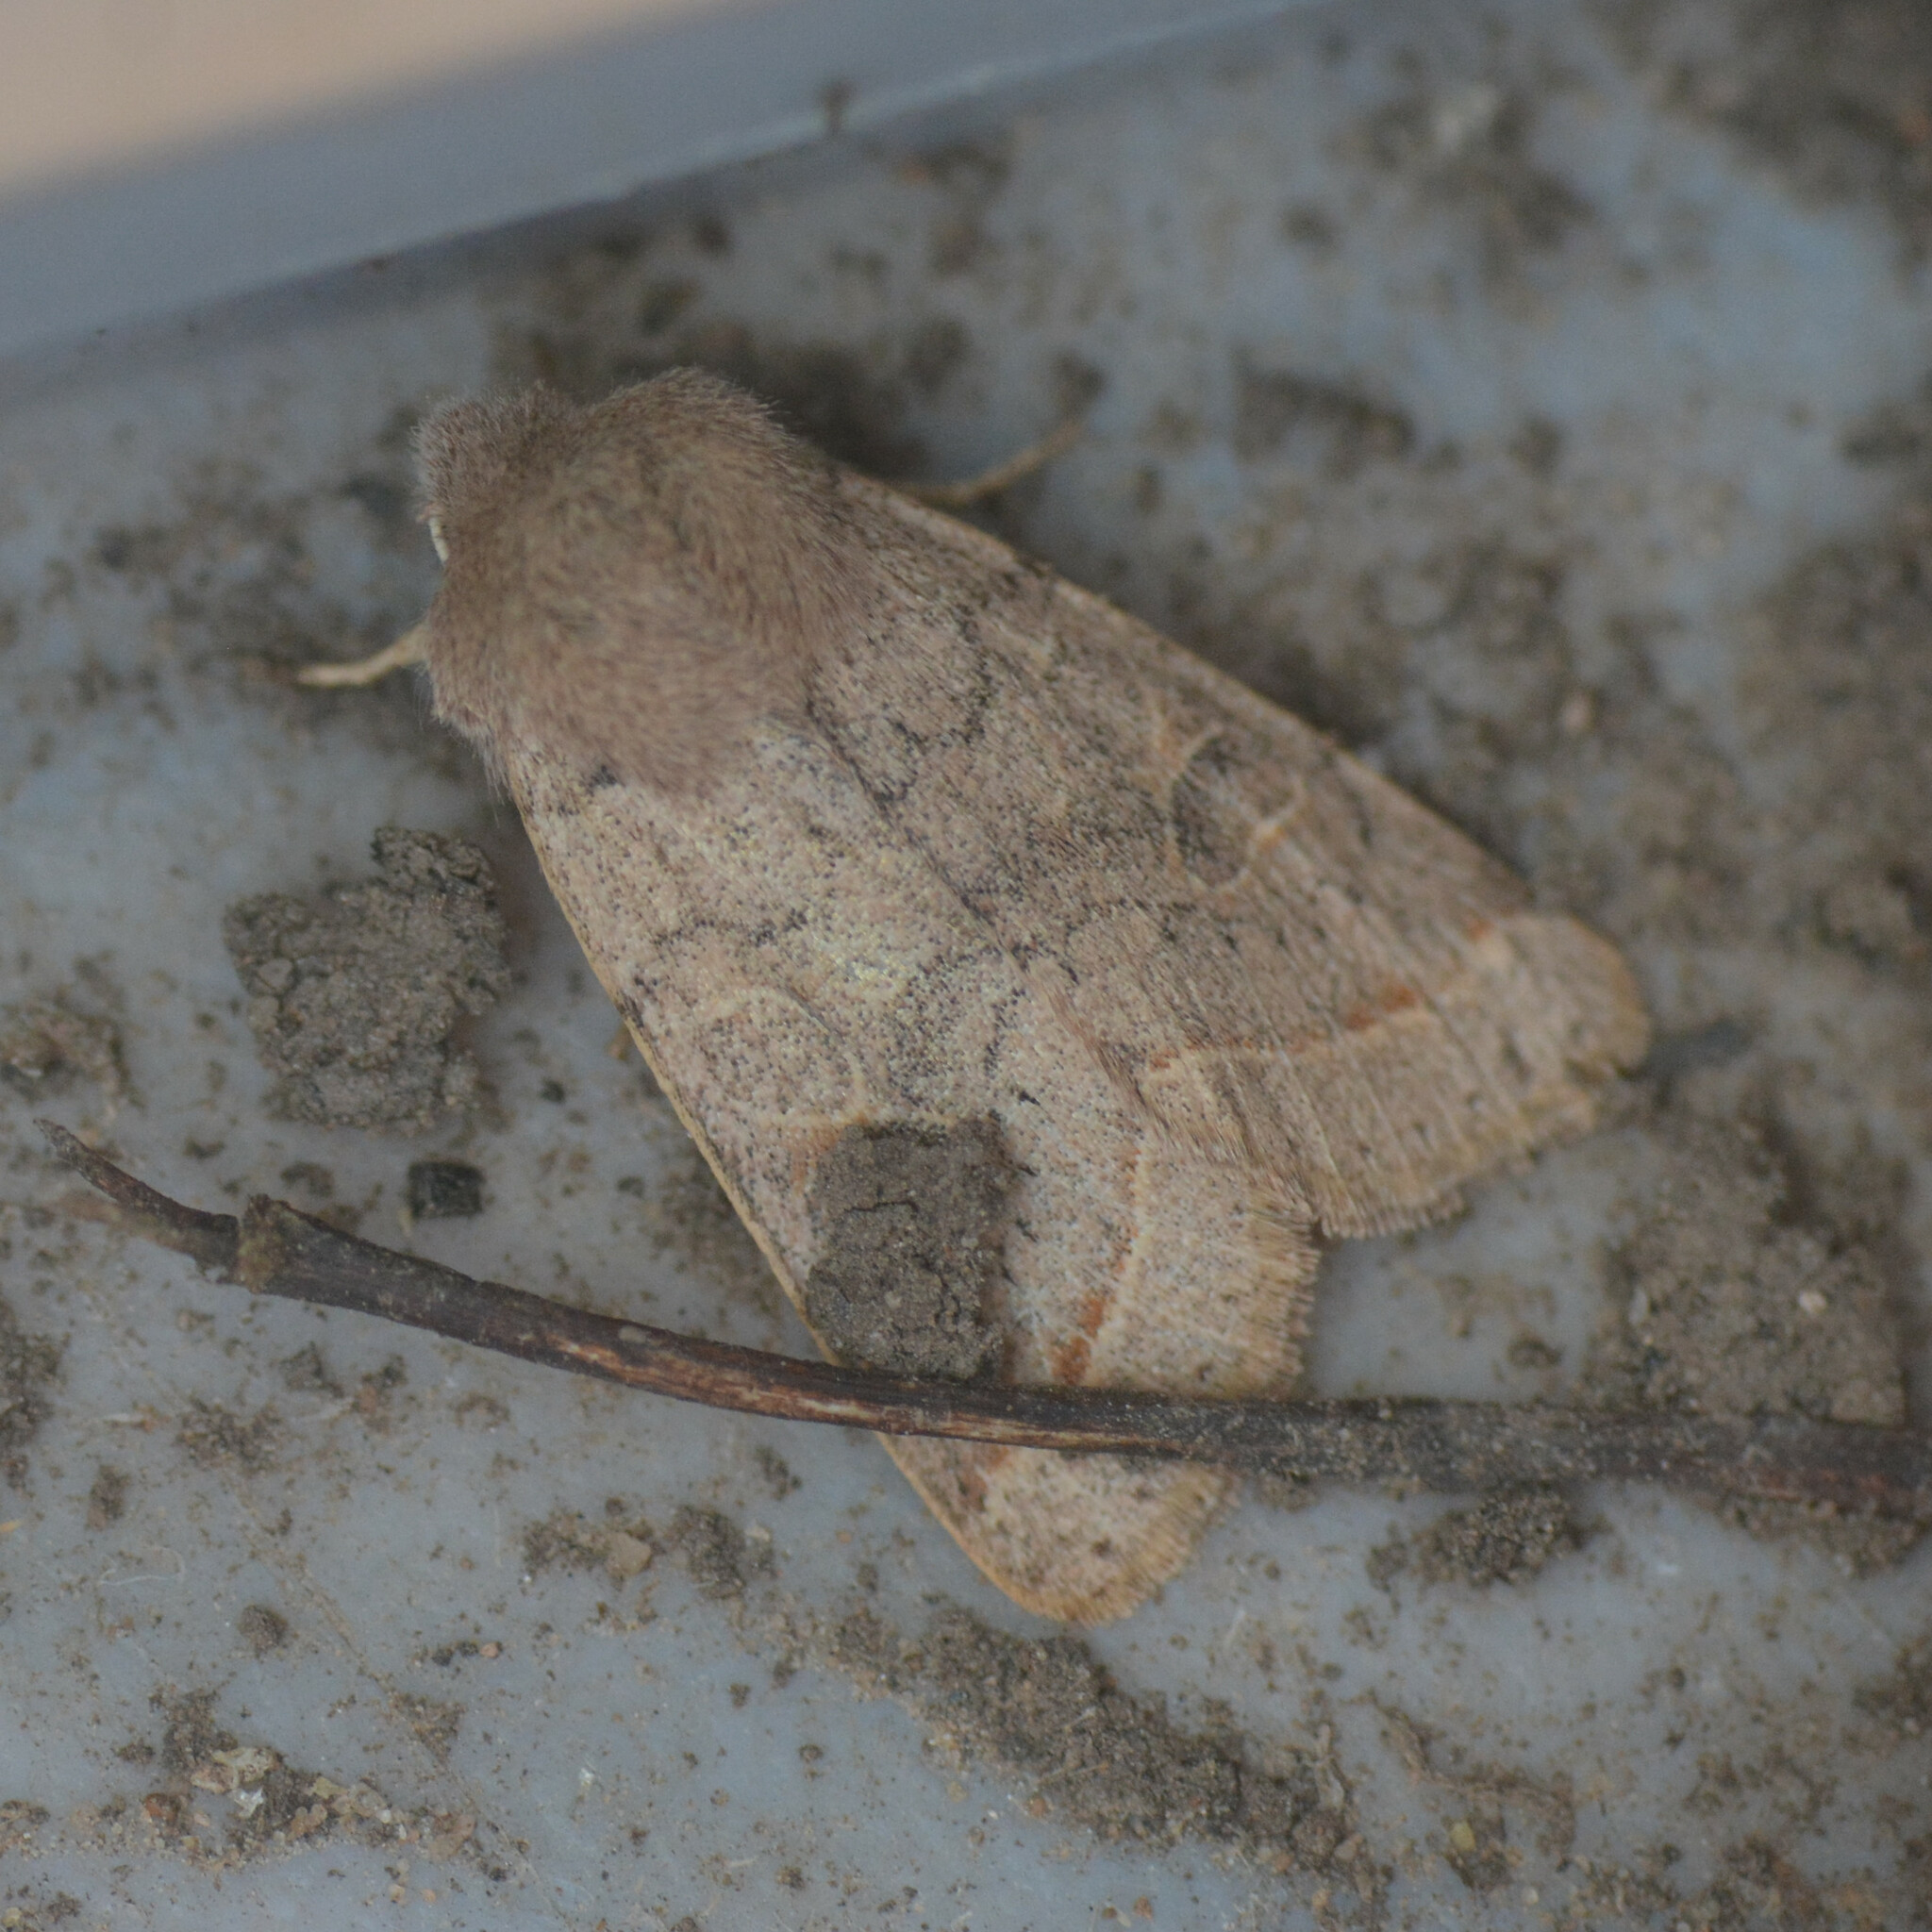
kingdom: Animalia
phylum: Arthropoda
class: Insecta
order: Lepidoptera
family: Noctuidae
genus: Orthosia
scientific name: Orthosia cerasi
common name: Common quaker
